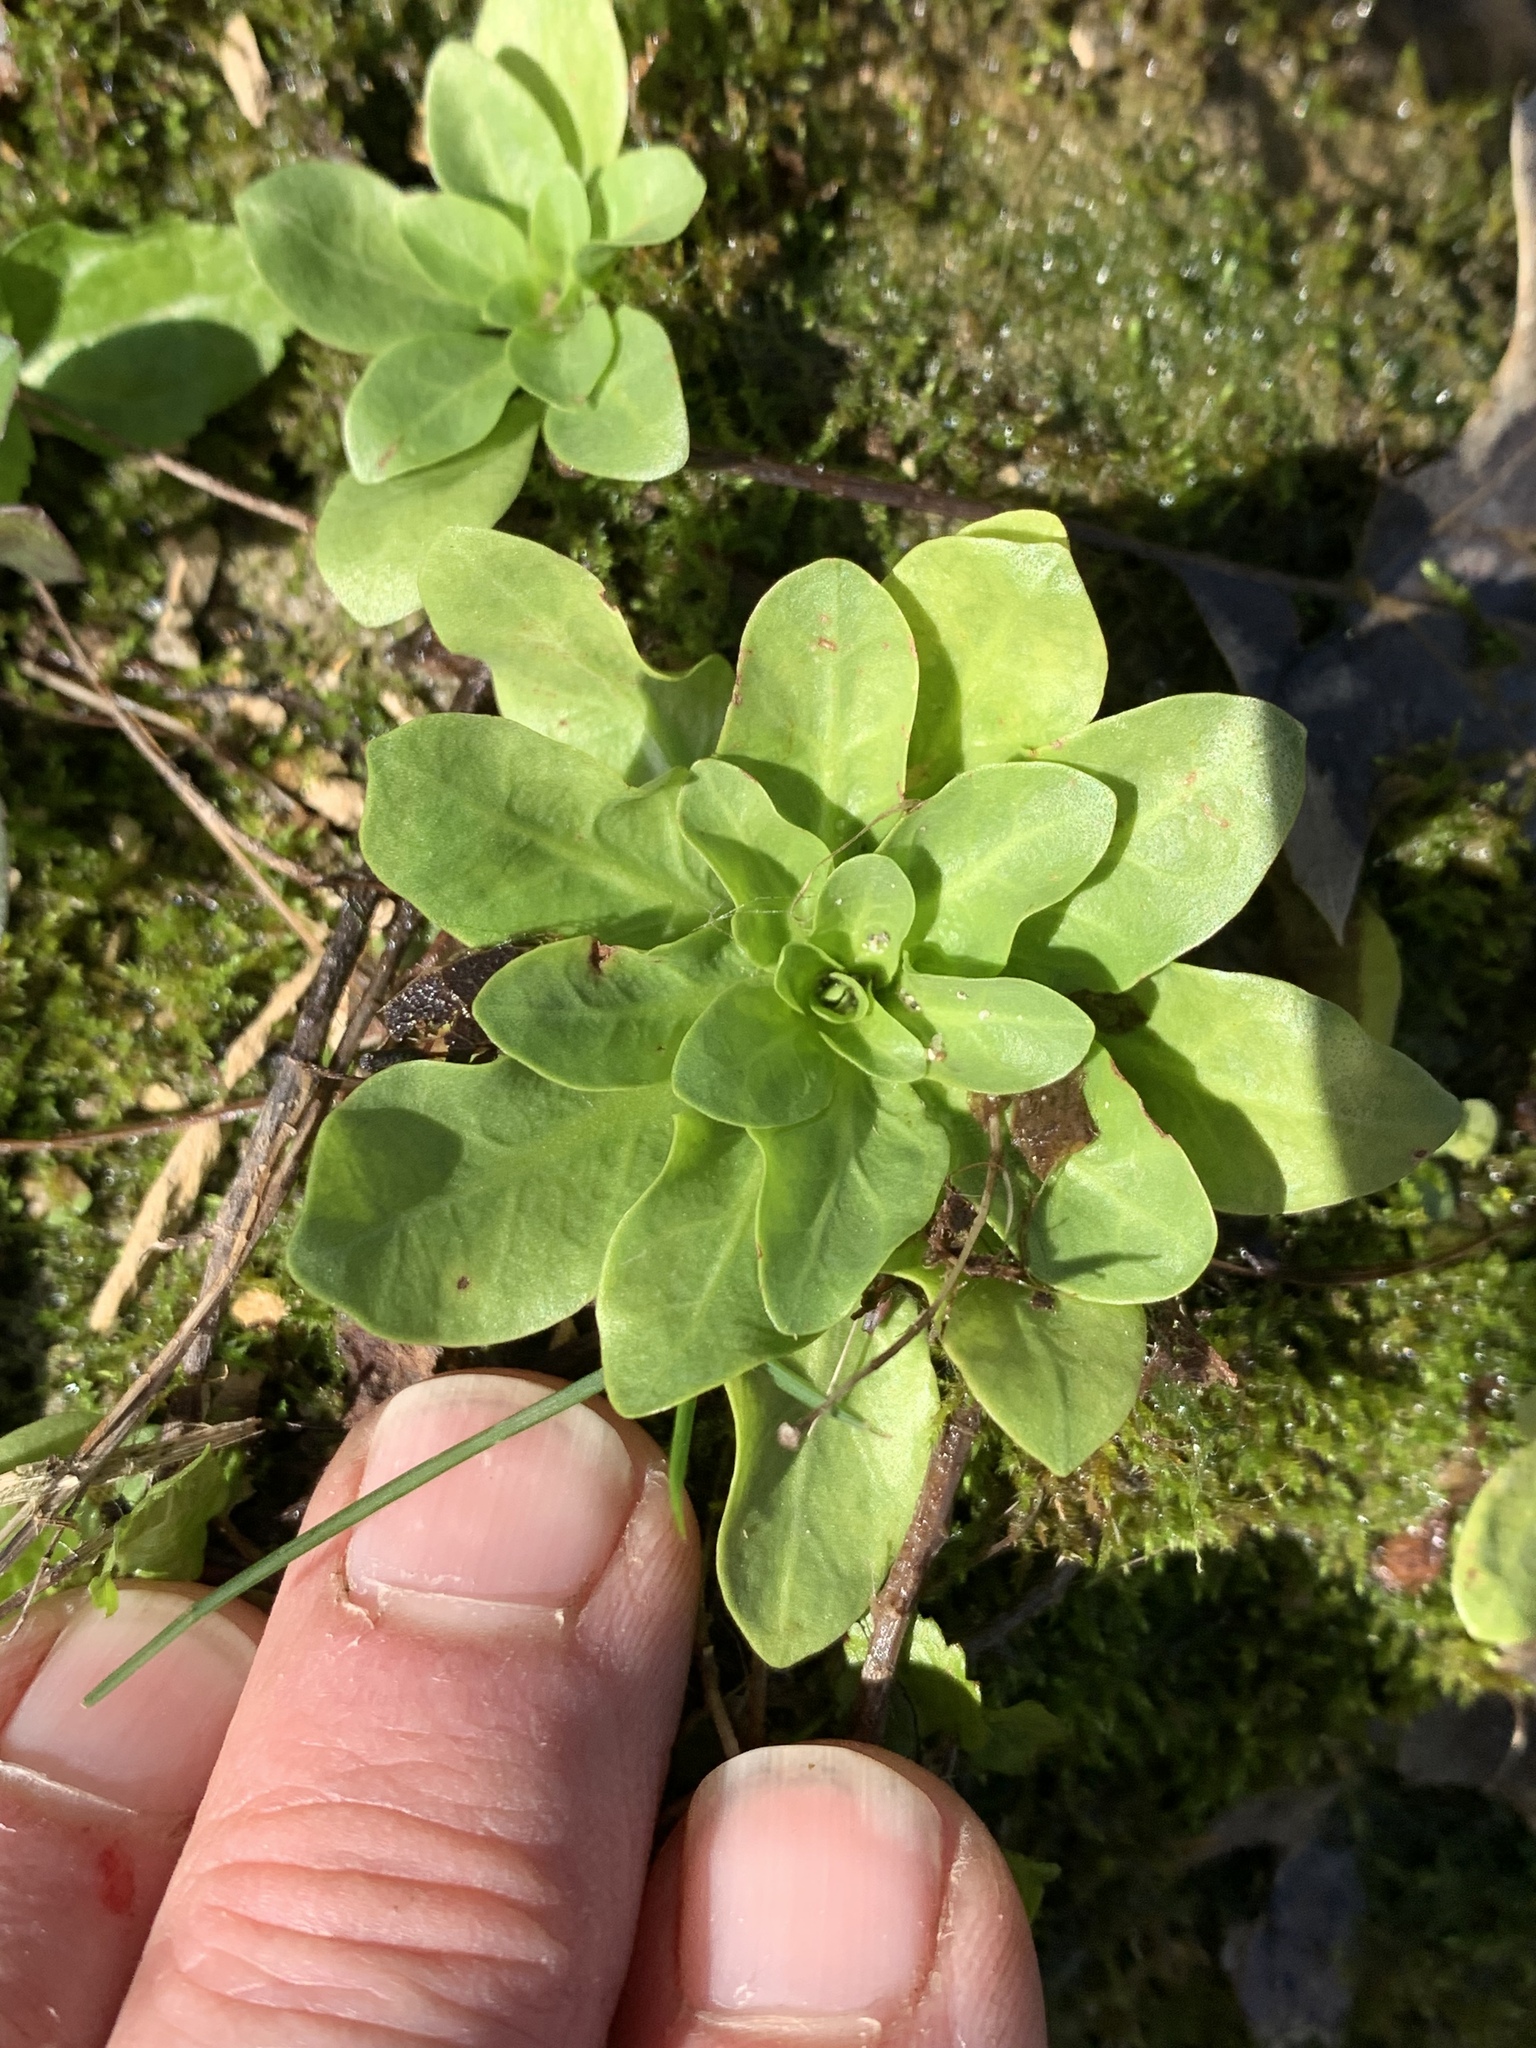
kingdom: Plantae
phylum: Tracheophyta
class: Magnoliopsida
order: Ericales
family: Primulaceae
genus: Samolus
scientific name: Samolus parviflorus
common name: False water pimpernel
